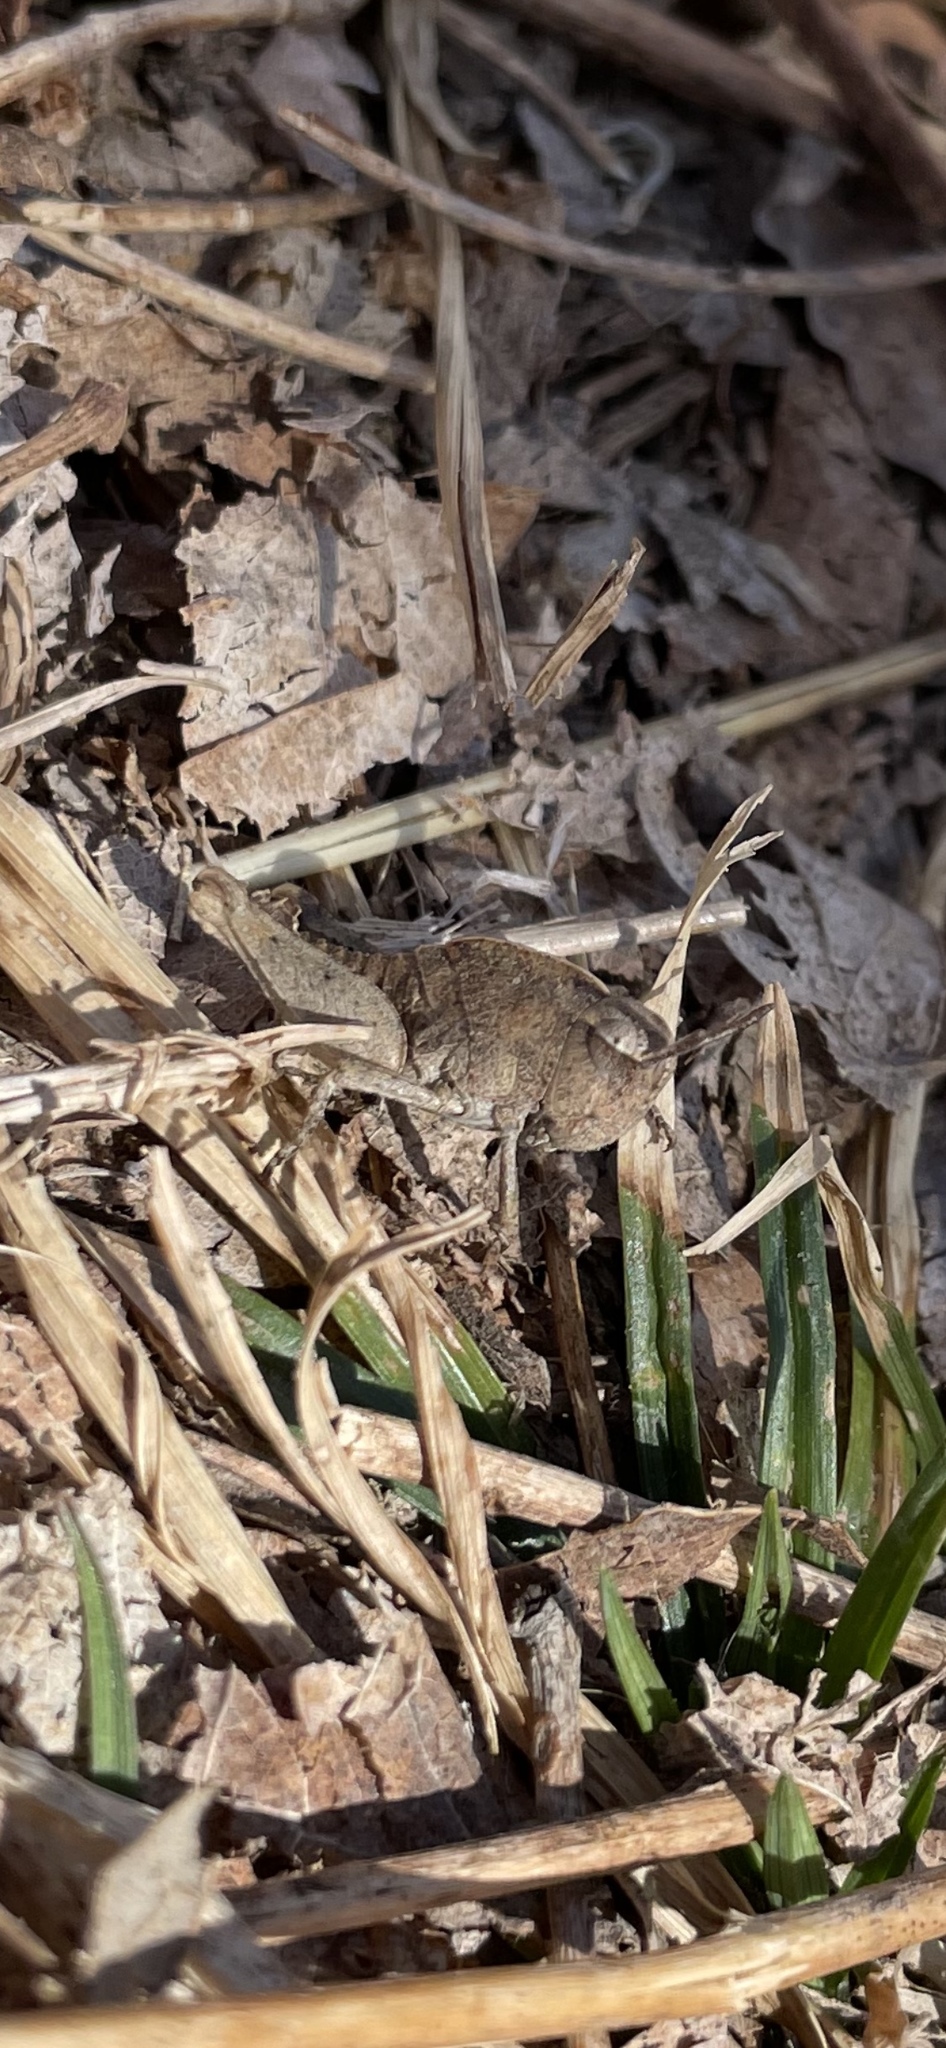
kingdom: Animalia
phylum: Arthropoda
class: Insecta
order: Orthoptera
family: Acrididae
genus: Chortophaga
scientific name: Chortophaga viridifasciata
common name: Green-striped grasshopper
